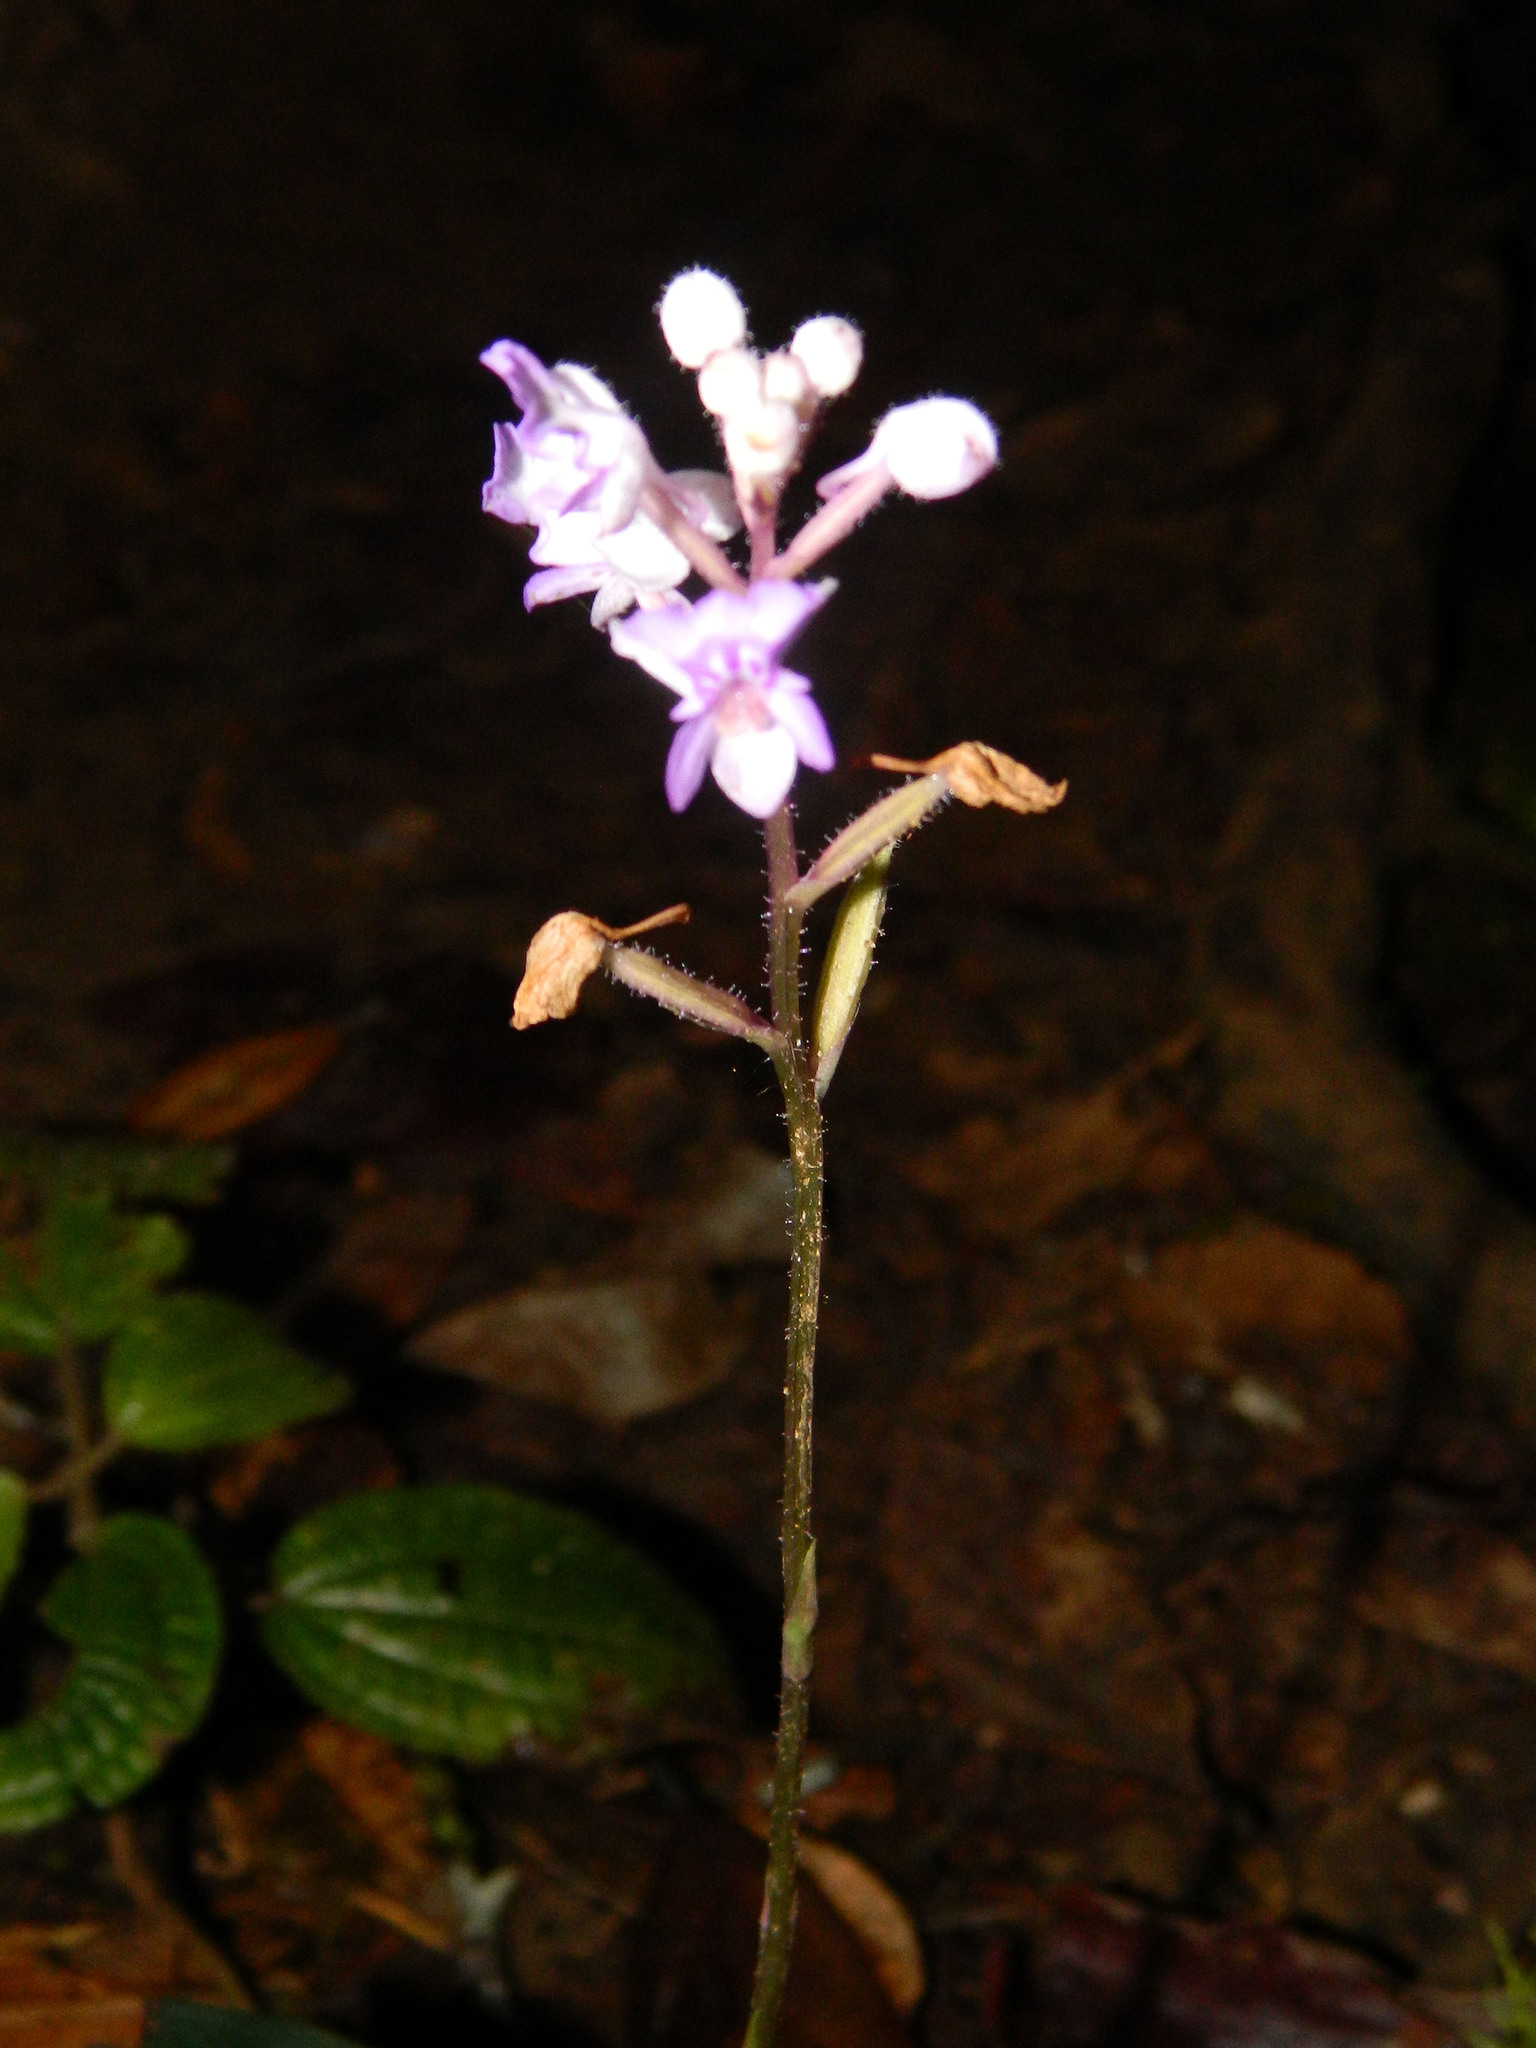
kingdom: Plantae
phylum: Tracheophyta
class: Liliopsida
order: Asparagales
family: Orchidaceae
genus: Cynorkis
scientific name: Cynorkis ridleyi
